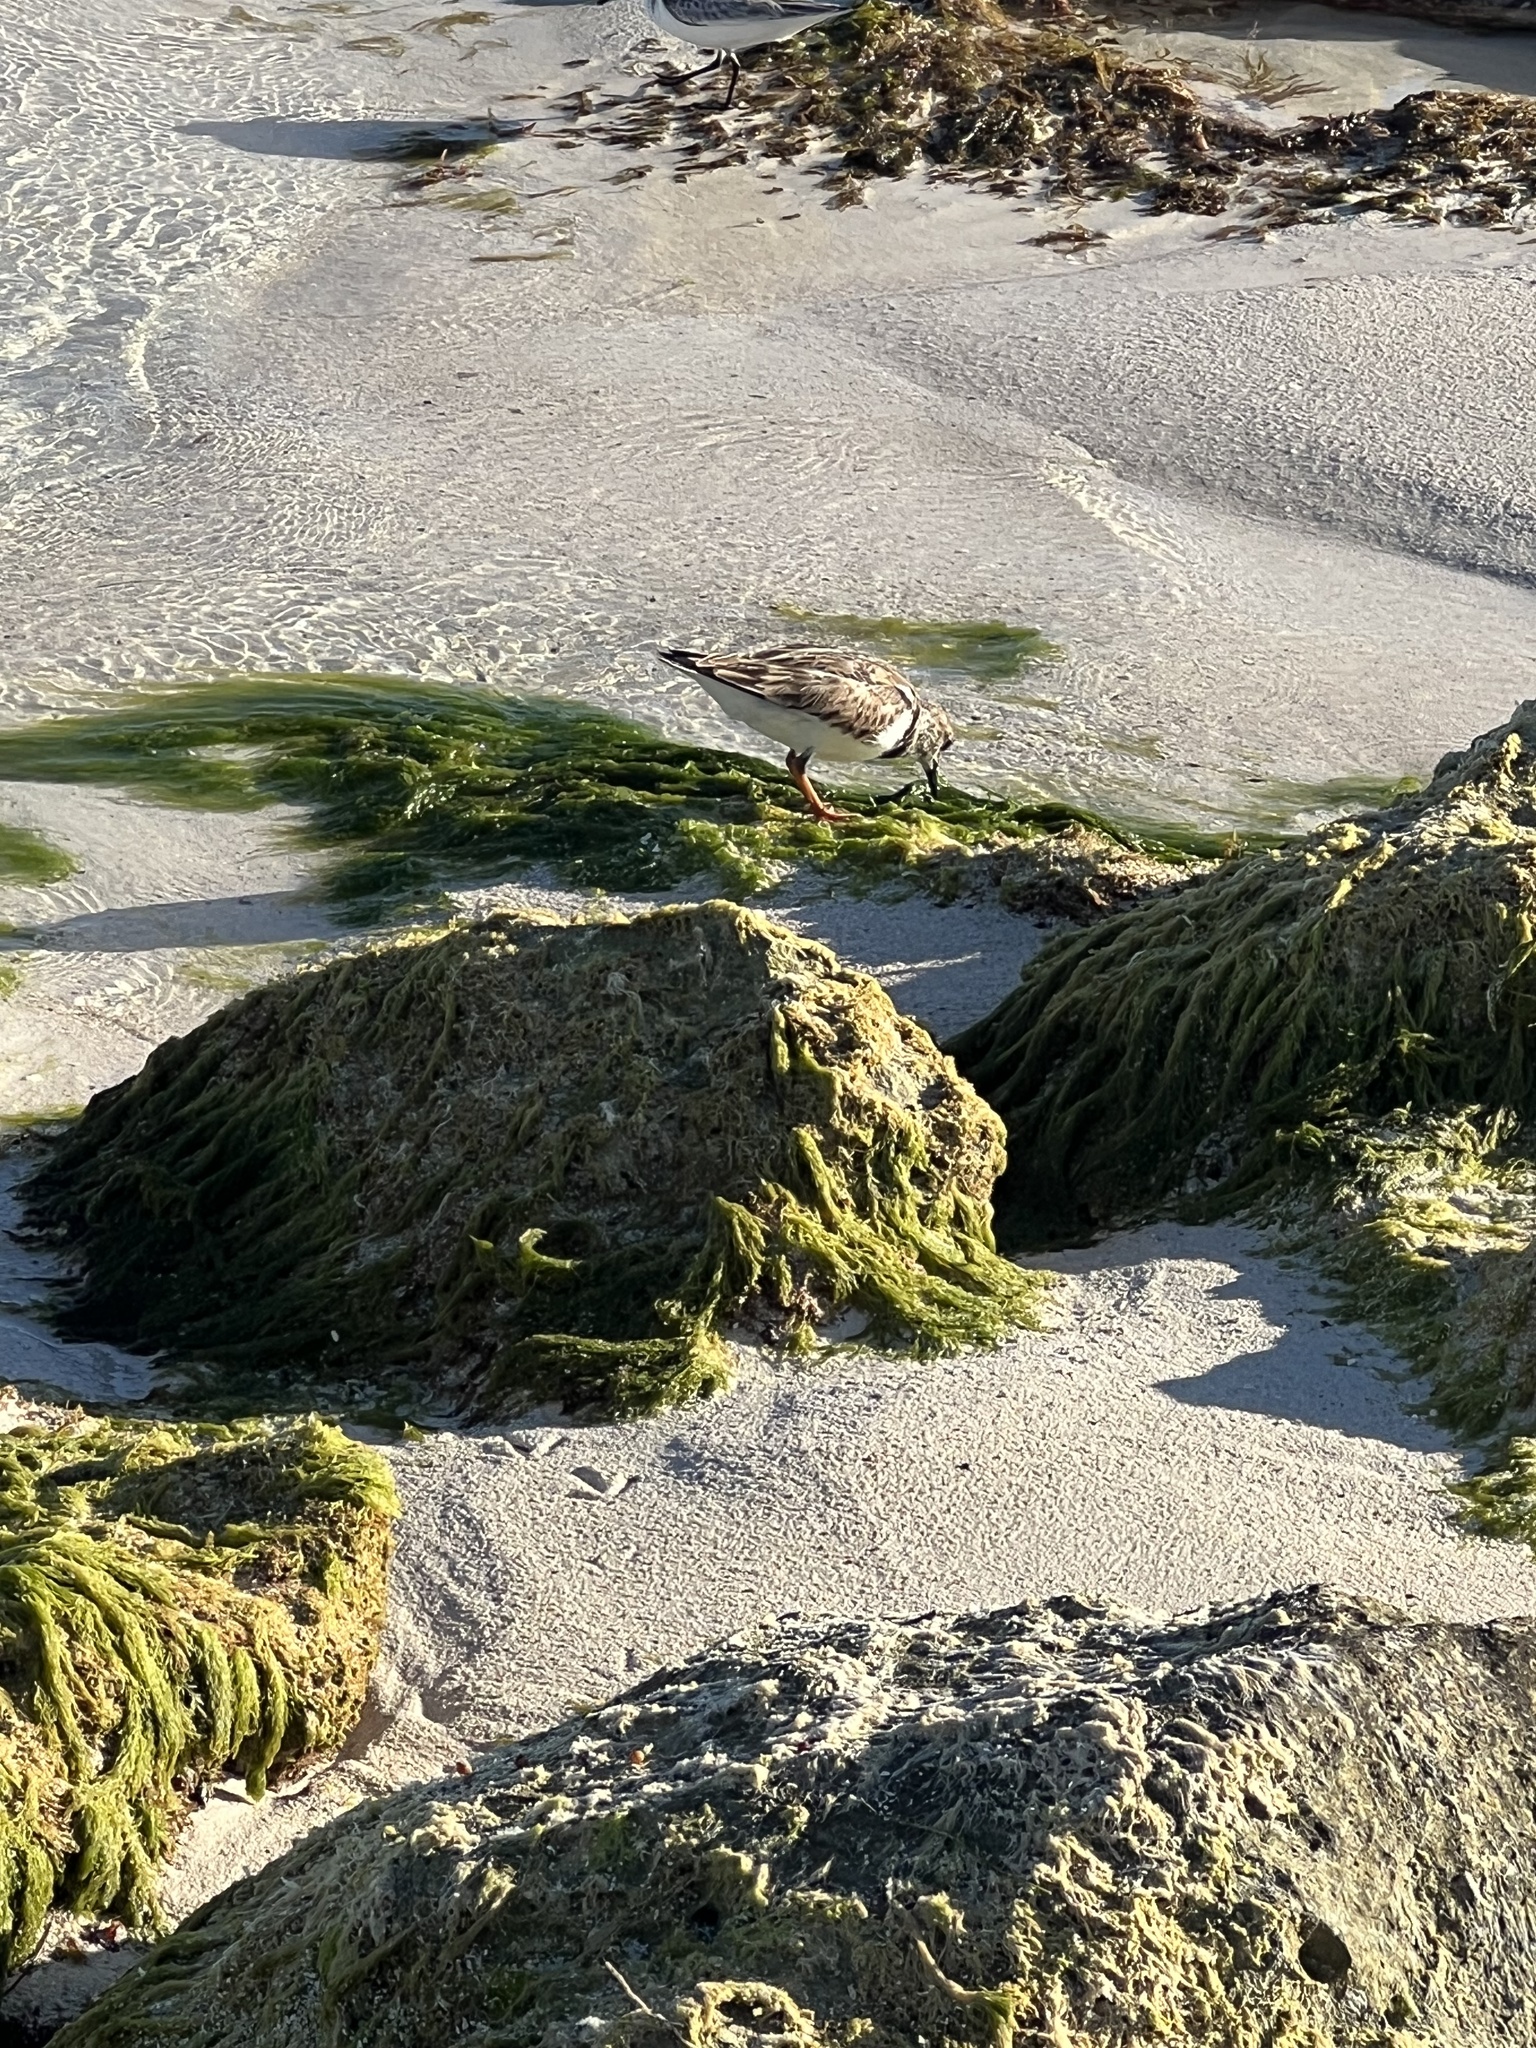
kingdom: Animalia
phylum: Chordata
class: Aves
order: Charadriiformes
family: Scolopacidae
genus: Arenaria
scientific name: Arenaria interpres
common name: Ruddy turnstone
